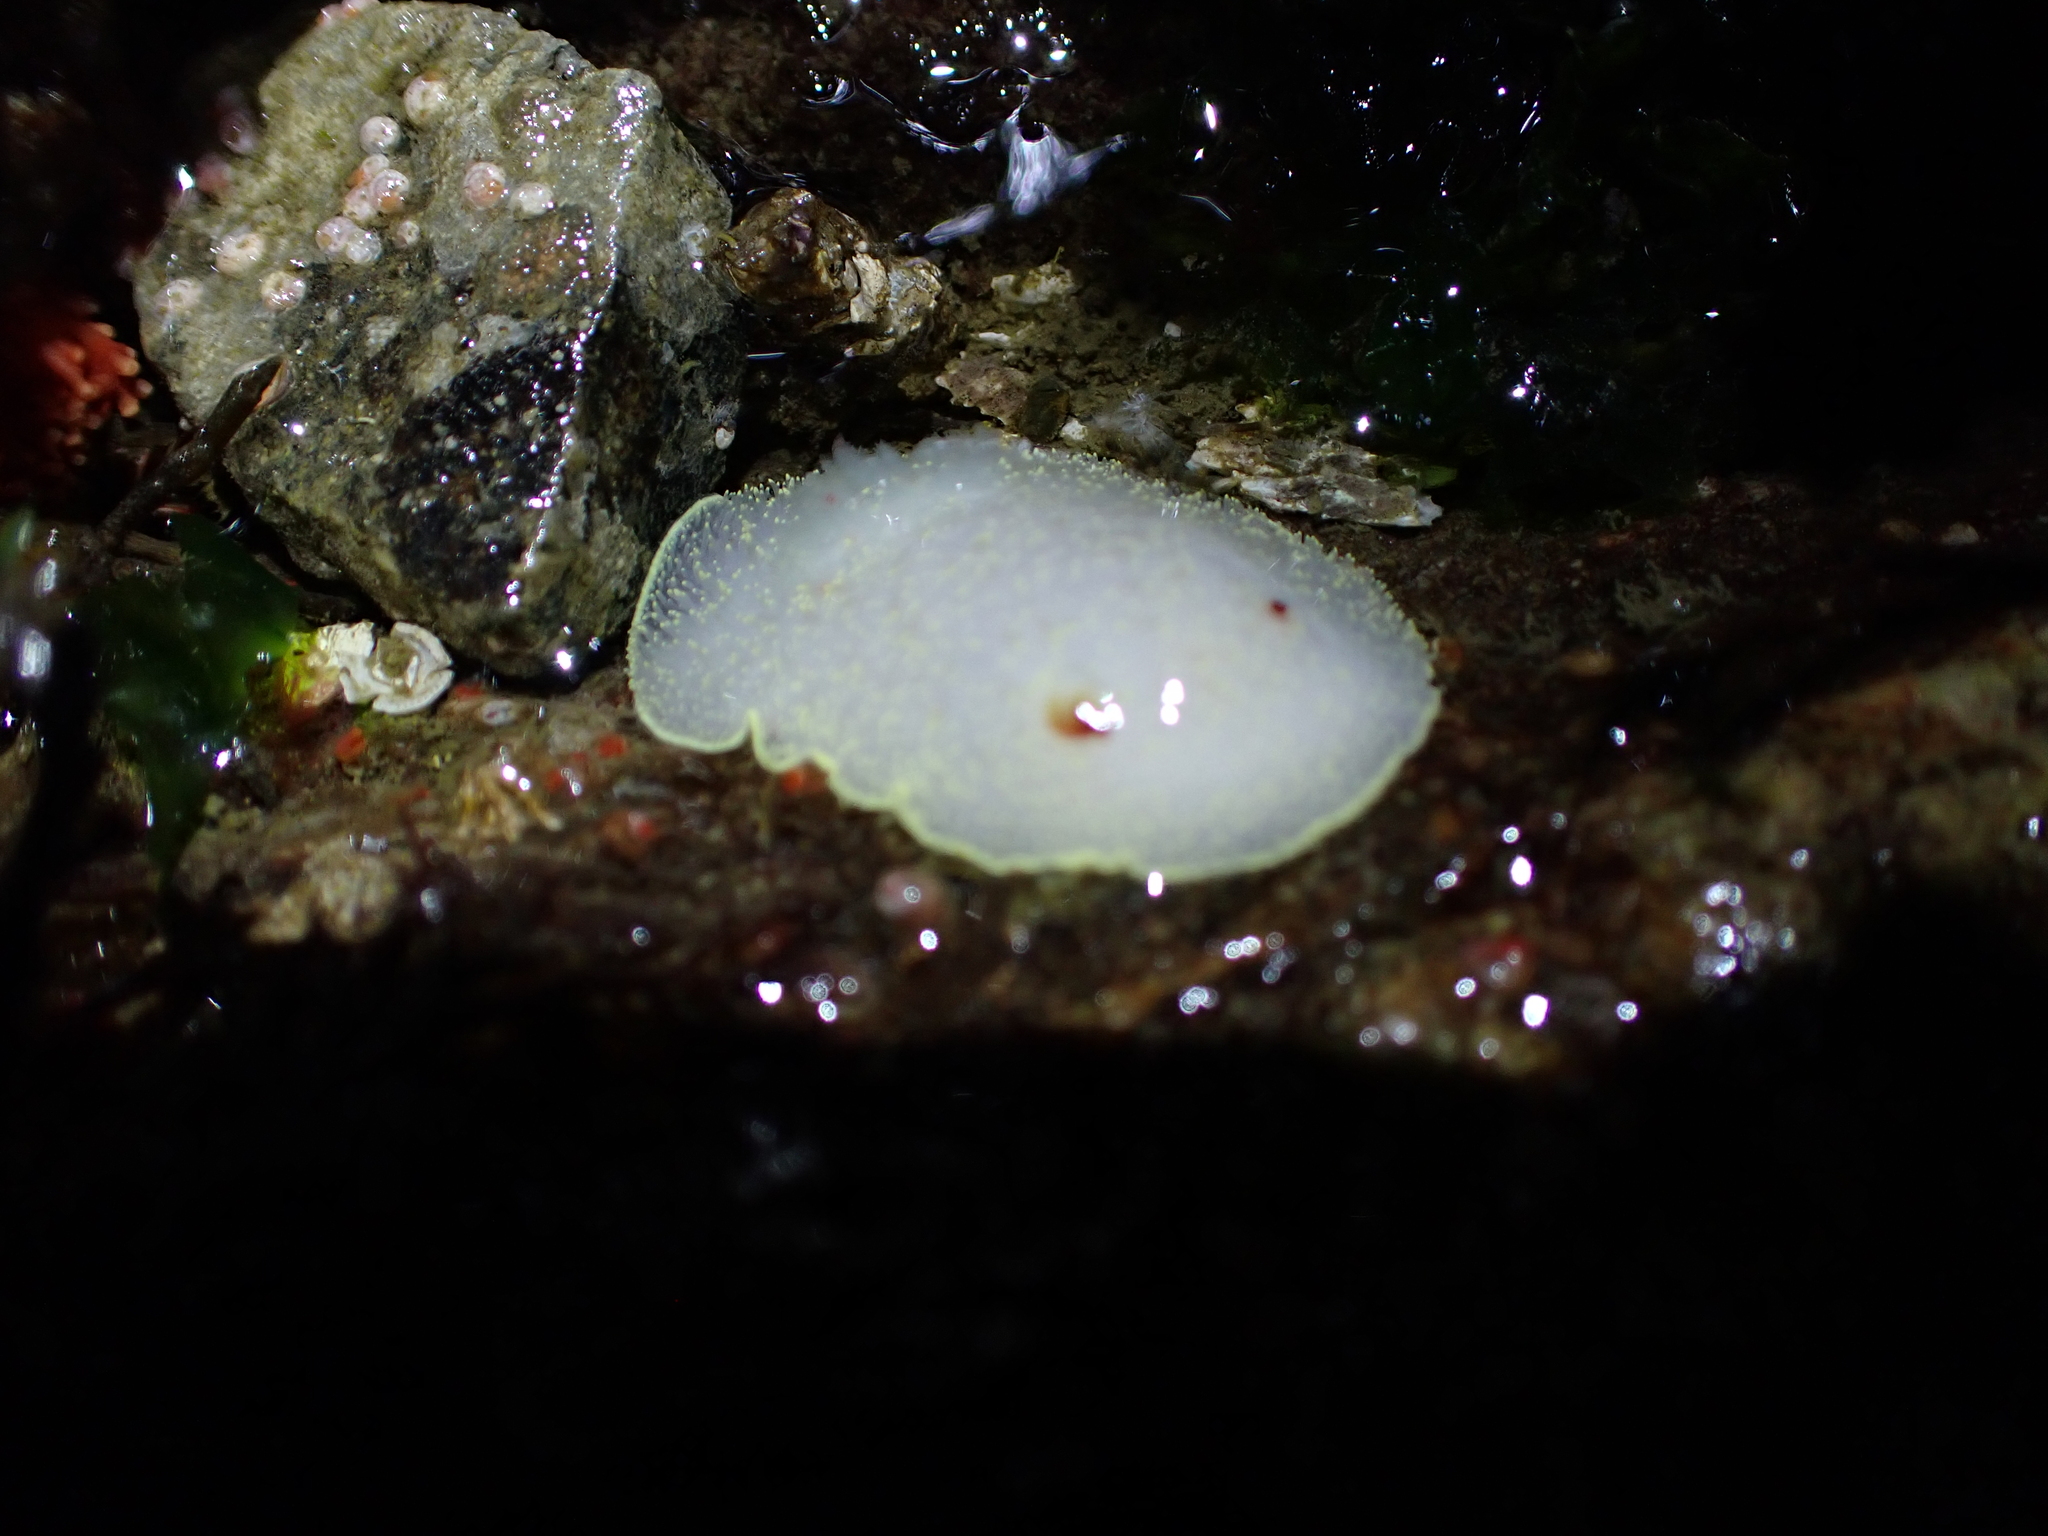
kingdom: Animalia
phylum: Mollusca
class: Gastropoda
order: Nudibranchia
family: Onchidorididae
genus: Acanthodoris
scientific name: Acanthodoris nanaimoensis
